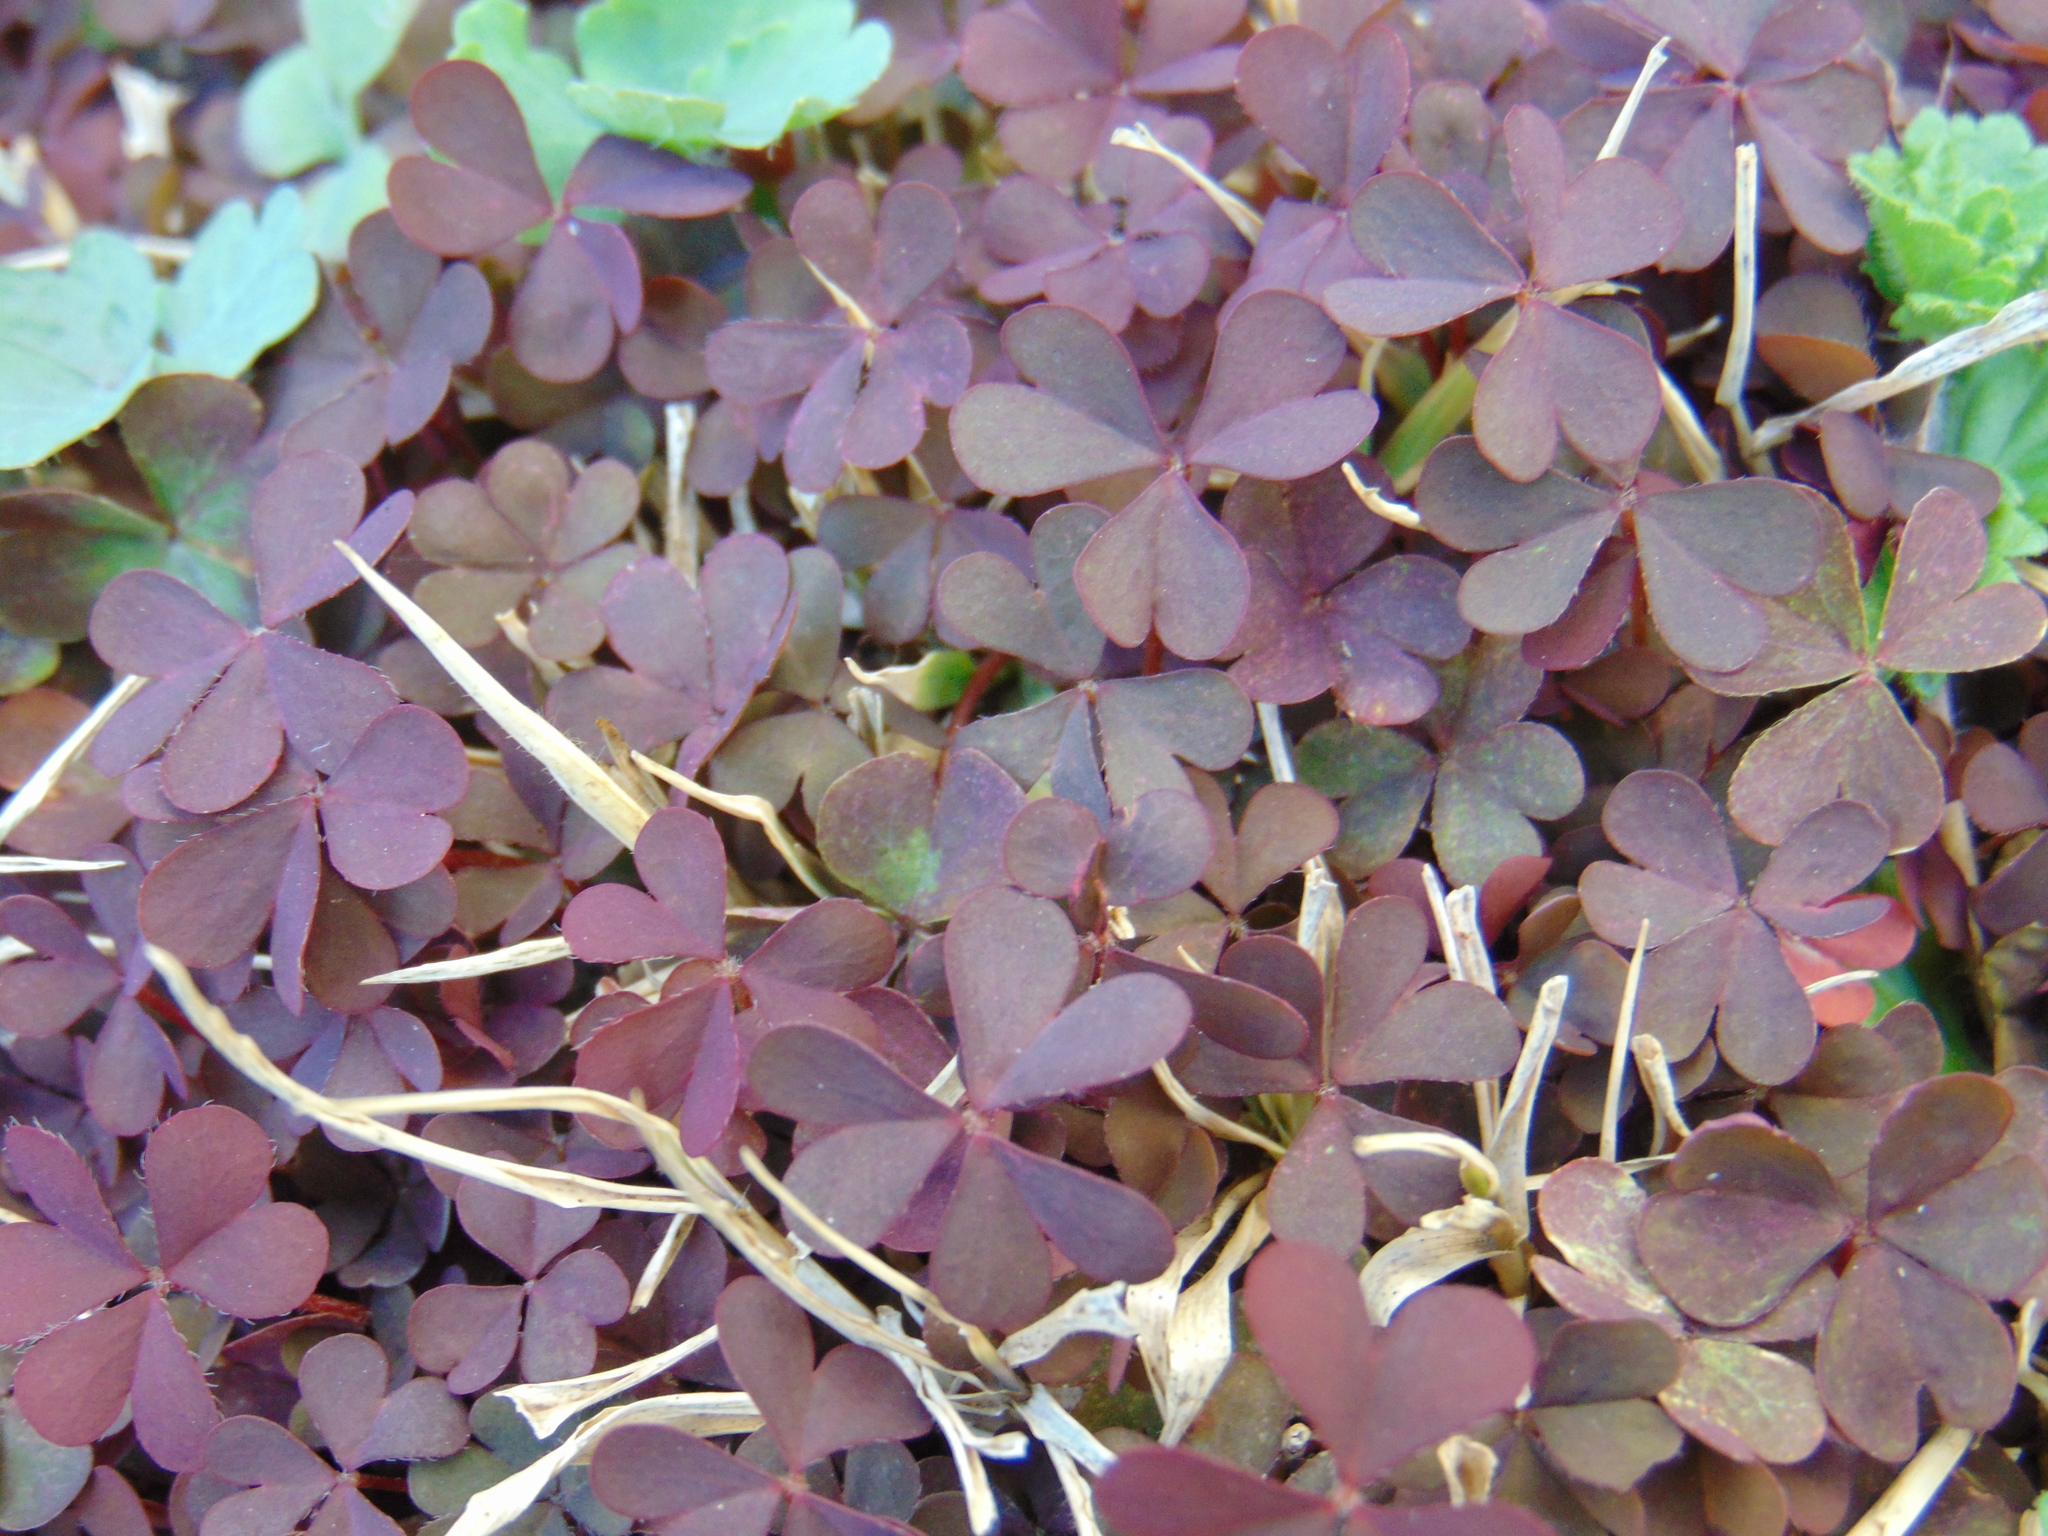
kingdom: Plantae
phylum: Tracheophyta
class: Magnoliopsida
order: Oxalidales
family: Oxalidaceae
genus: Oxalis
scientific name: Oxalis corniculata
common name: Procumbent yellow-sorrel
